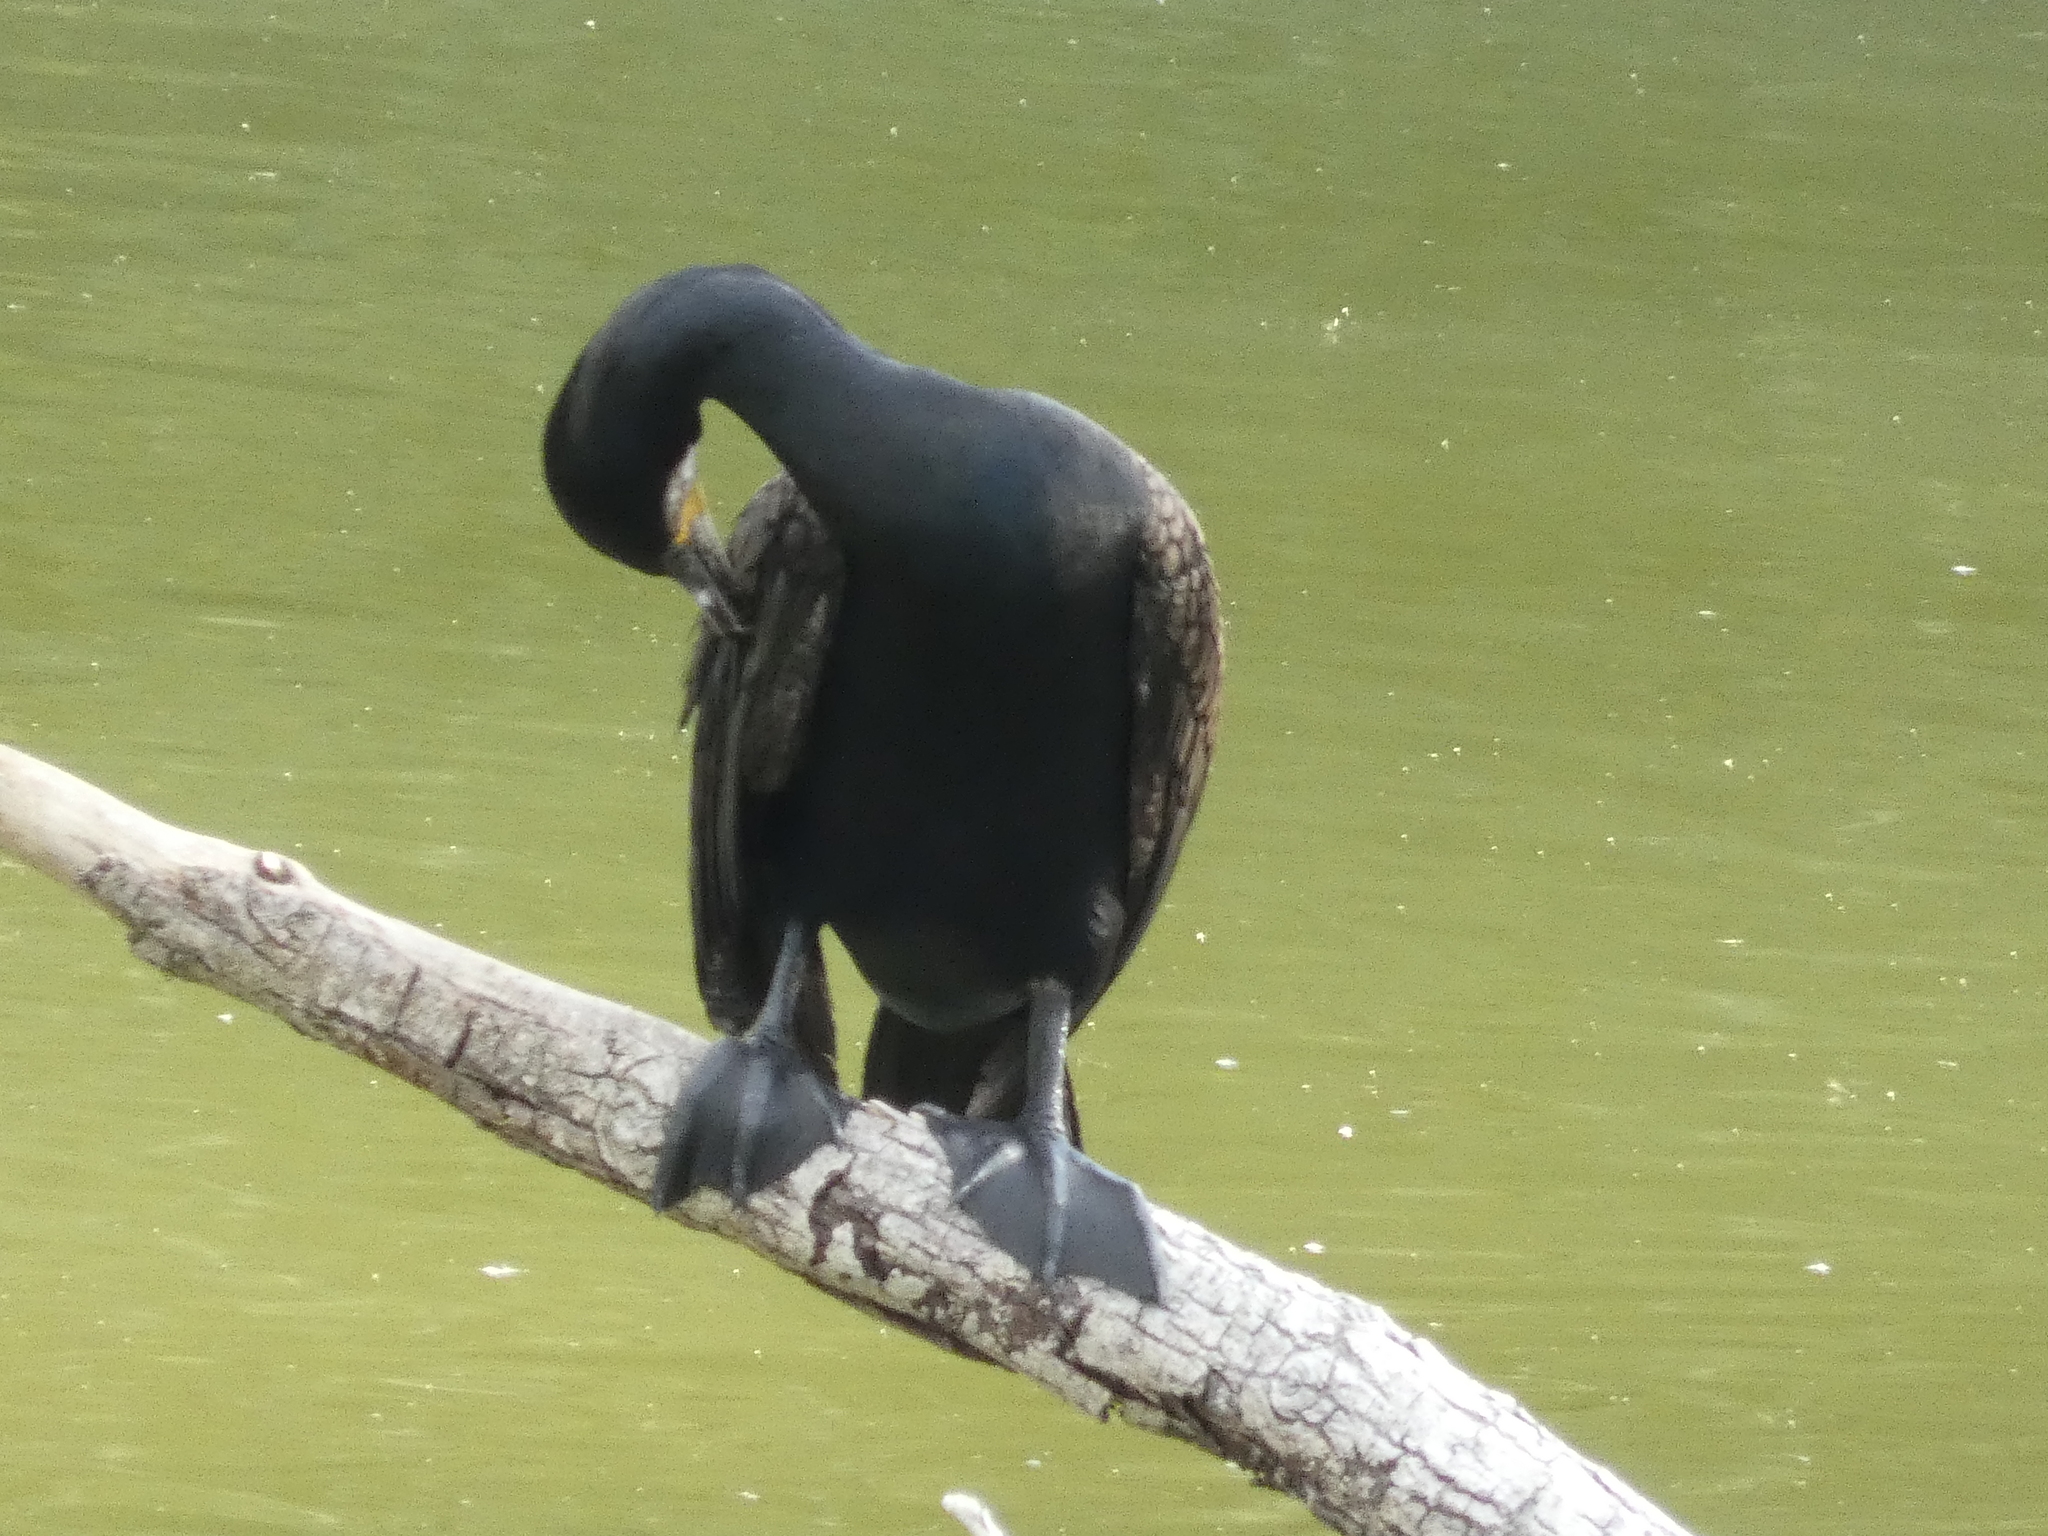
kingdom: Animalia
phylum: Chordata
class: Aves
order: Suliformes
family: Phalacrocoracidae
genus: Phalacrocorax
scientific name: Phalacrocorax carbo
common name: Great cormorant
